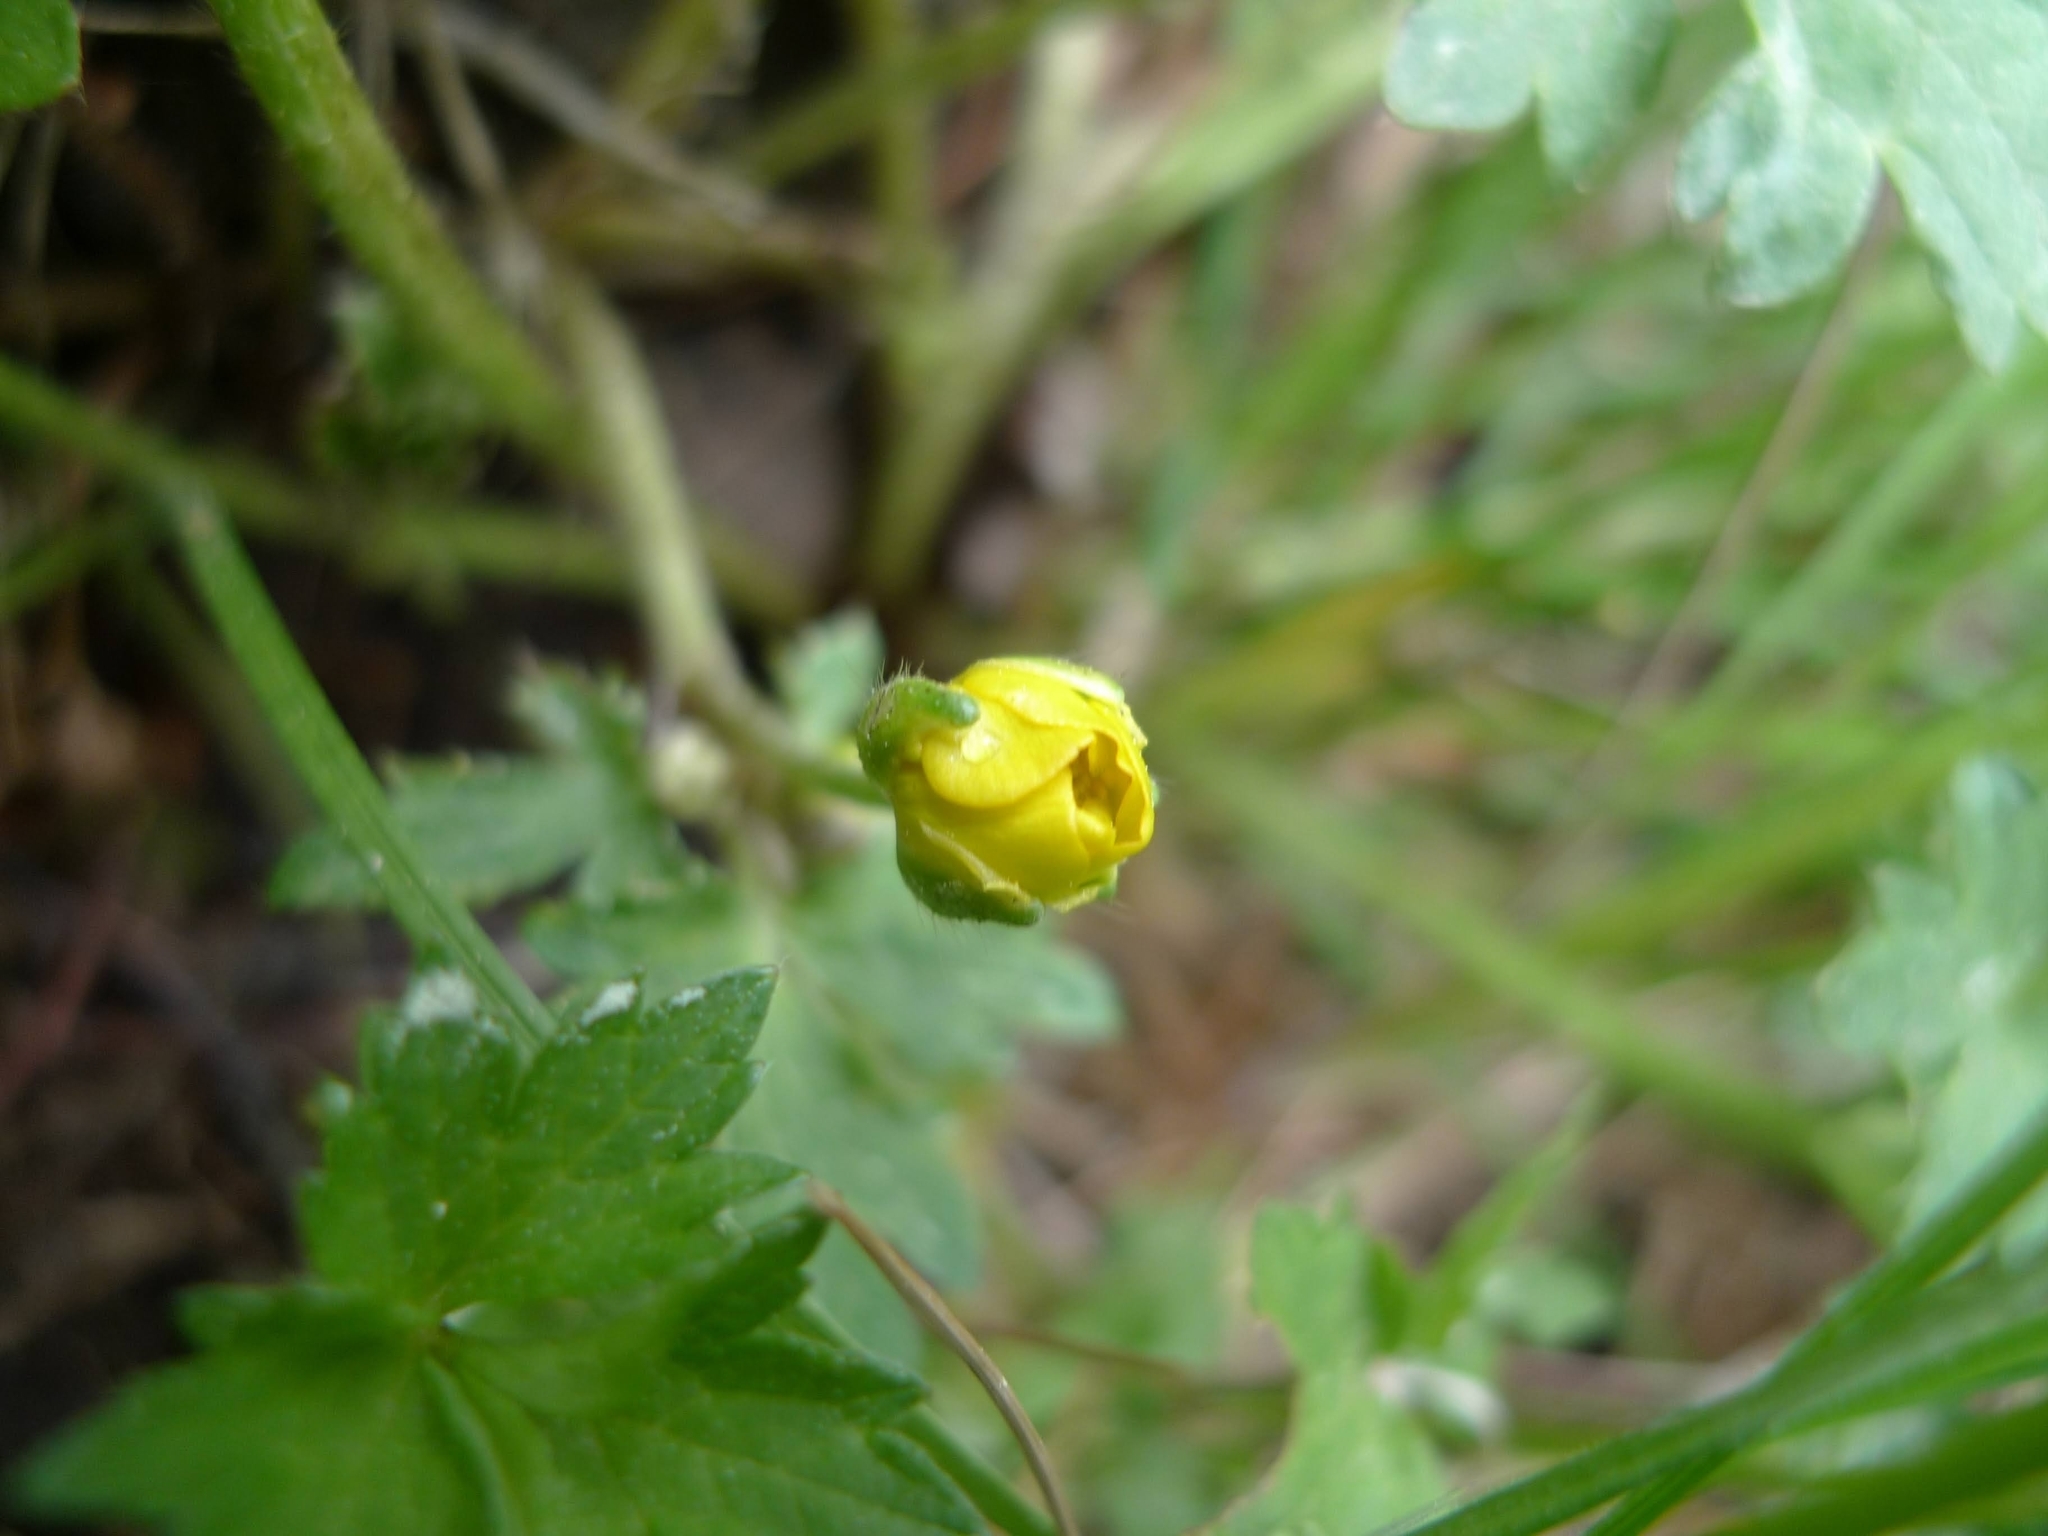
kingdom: Plantae
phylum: Tracheophyta
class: Magnoliopsida
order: Ranunculales
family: Ranunculaceae
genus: Ranunculus
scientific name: Ranunculus repens
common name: Creeping buttercup
